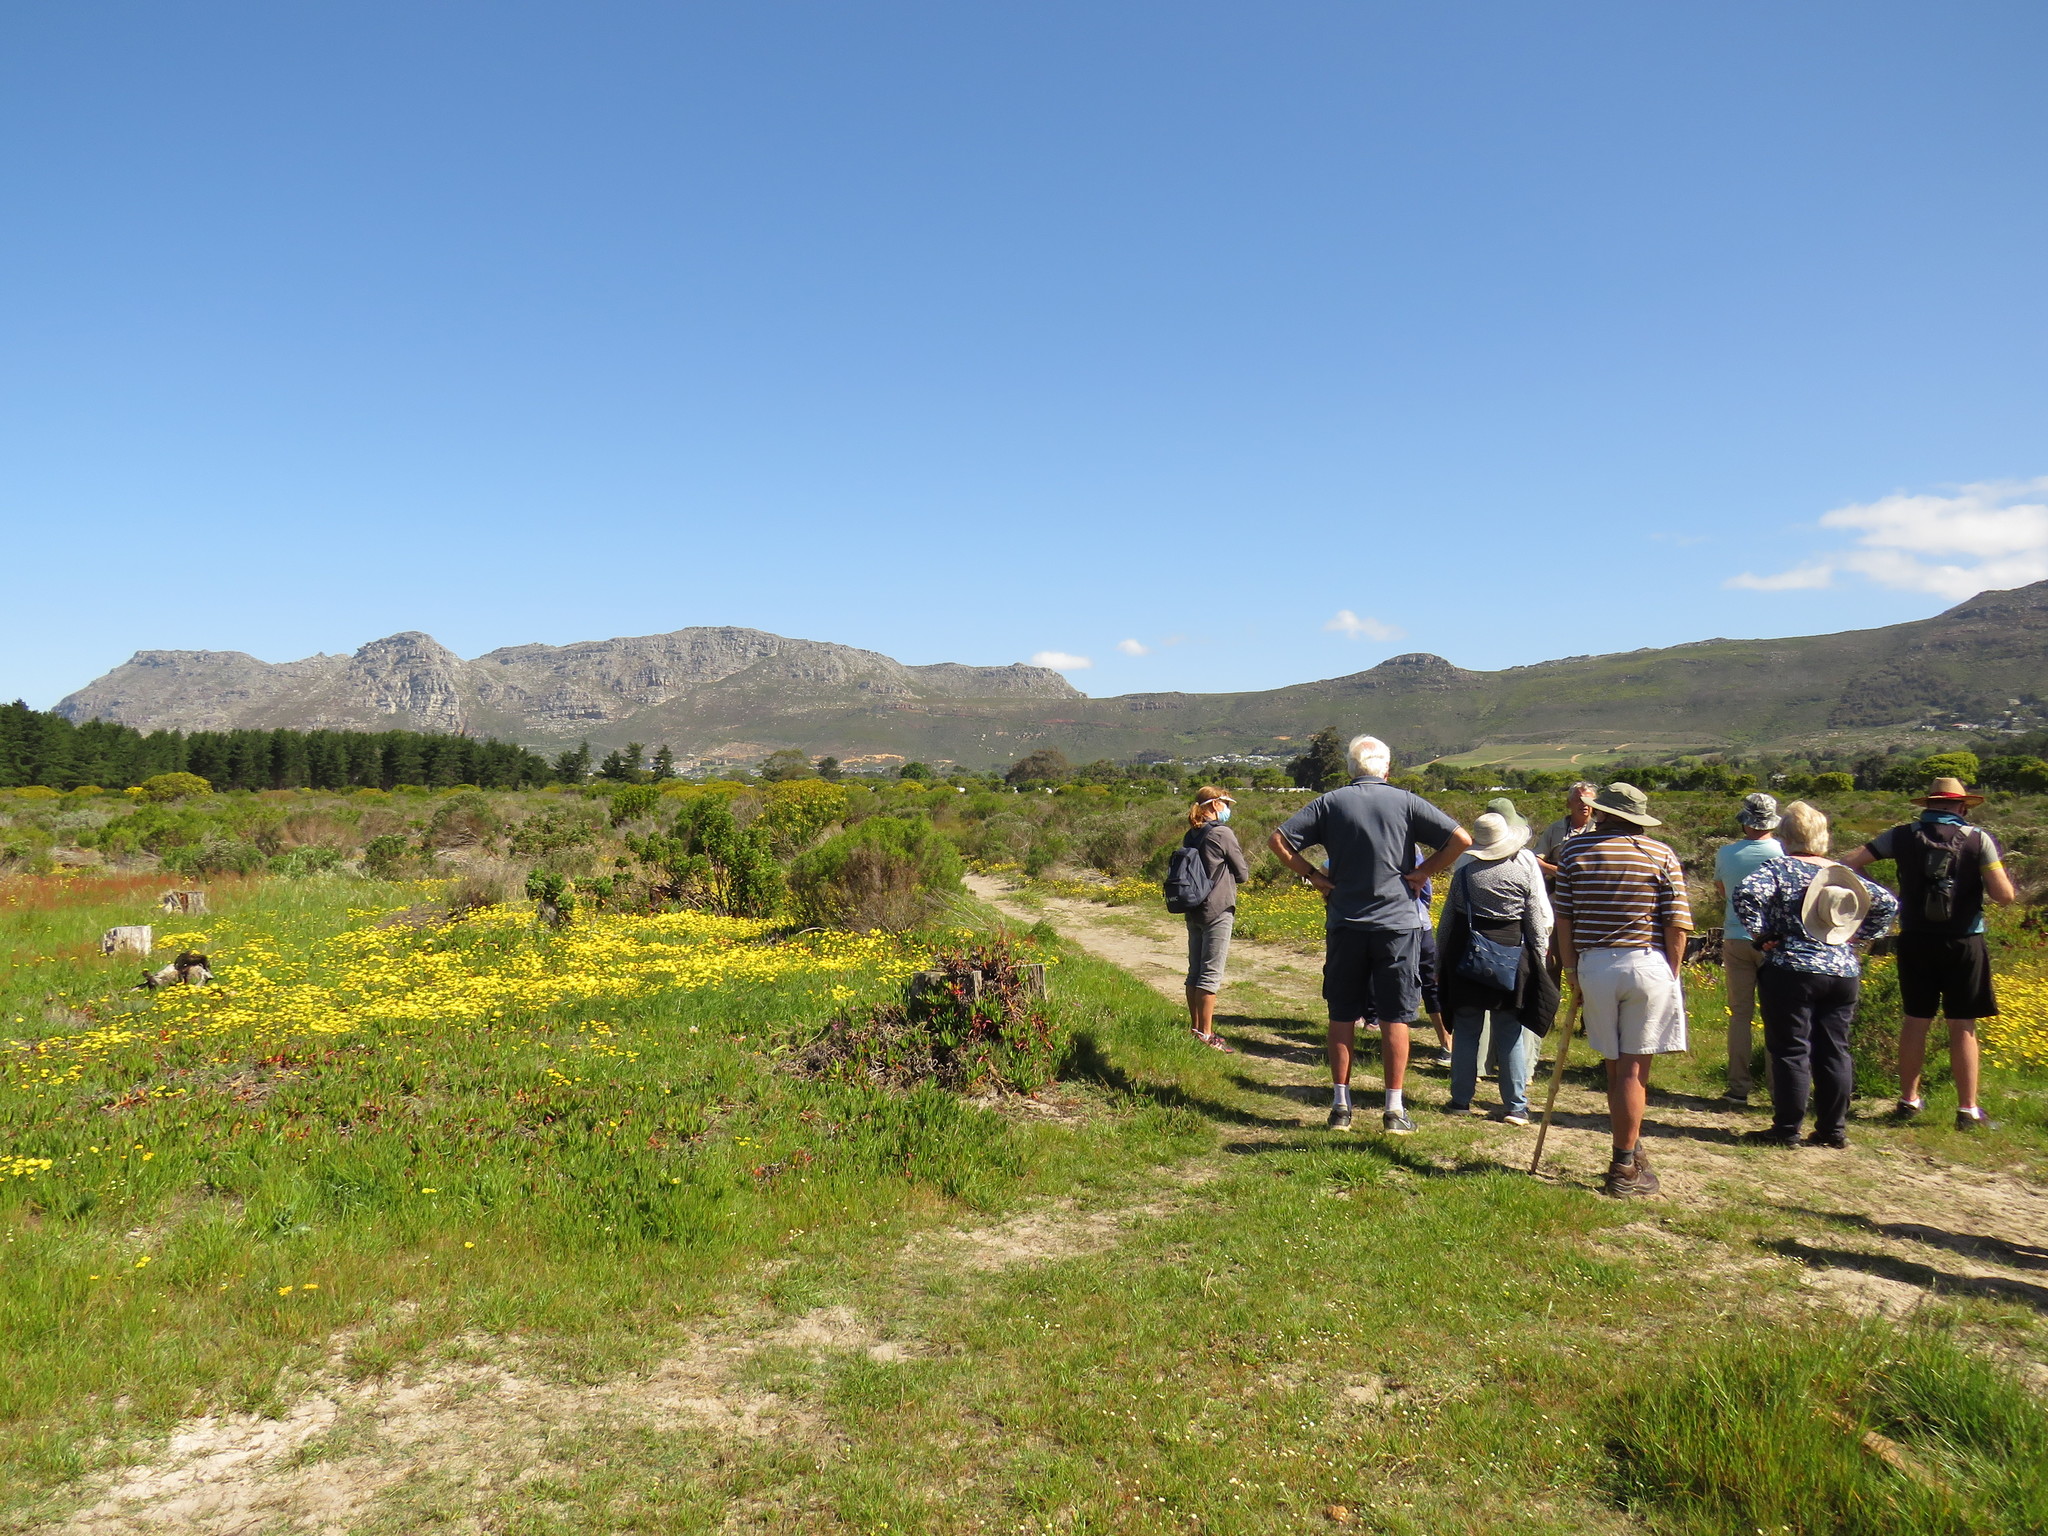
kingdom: Plantae
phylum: Tracheophyta
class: Magnoliopsida
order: Asterales
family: Asteraceae
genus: Ursinia
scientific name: Ursinia anthemoides
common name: Ursinia
